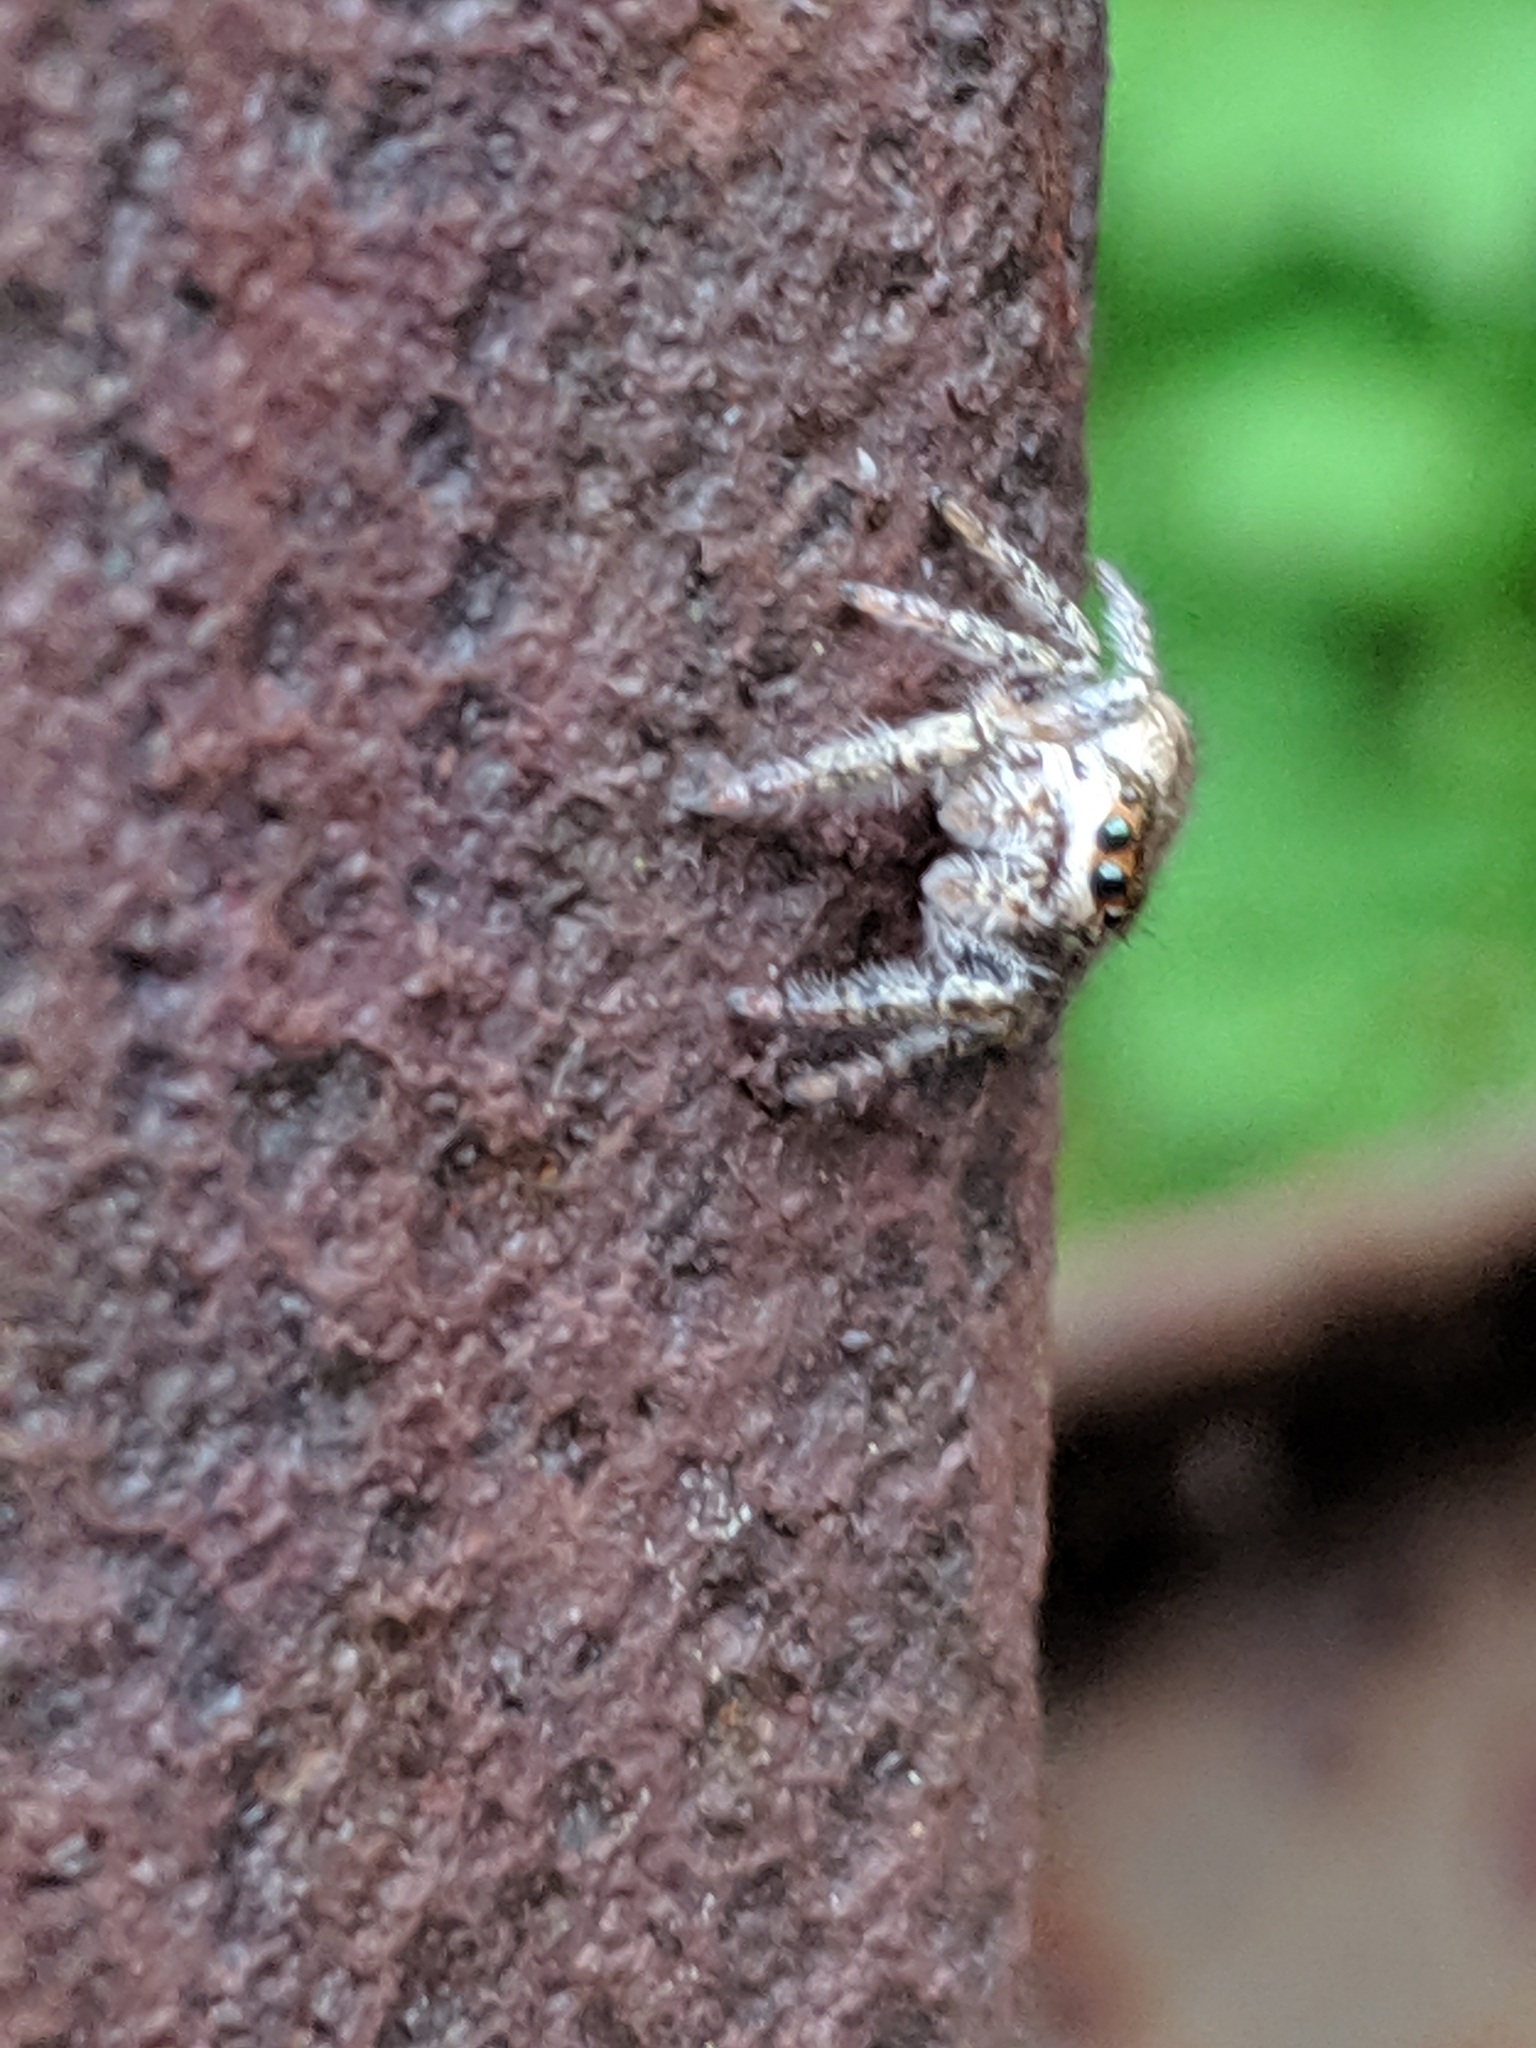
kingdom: Animalia
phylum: Arthropoda
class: Arachnida
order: Araneae
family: Salticidae
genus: Eris
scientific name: Eris
